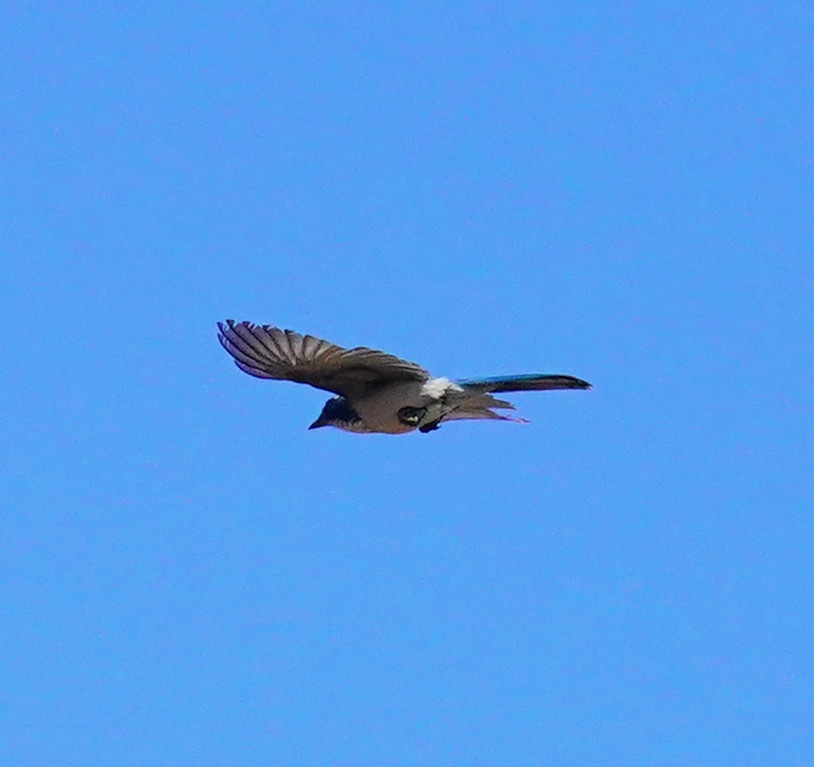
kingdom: Animalia
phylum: Chordata
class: Aves
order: Passeriformes
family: Corvidae
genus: Aphelocoma
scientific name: Aphelocoma californica
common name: California scrub-jay
